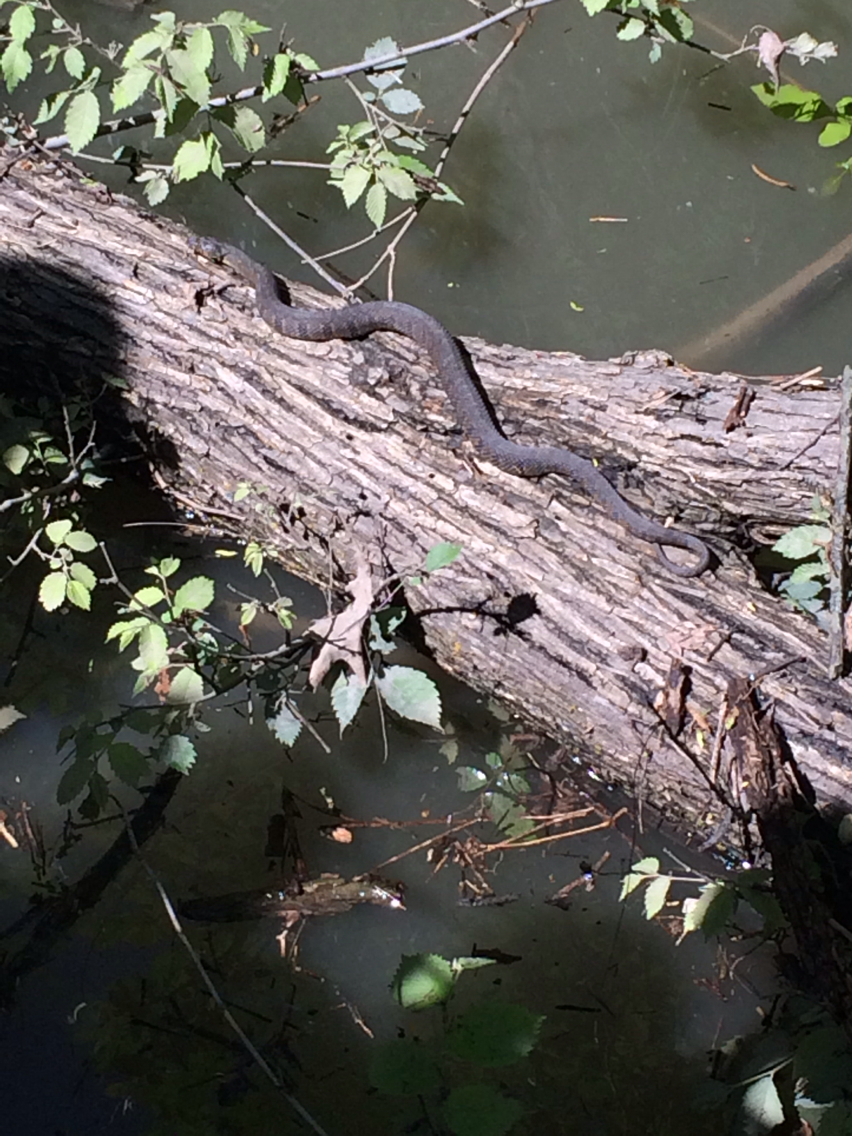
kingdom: Animalia
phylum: Chordata
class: Squamata
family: Colubridae
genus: Nerodia
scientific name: Nerodia rhombifer
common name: Diamondback water snake
